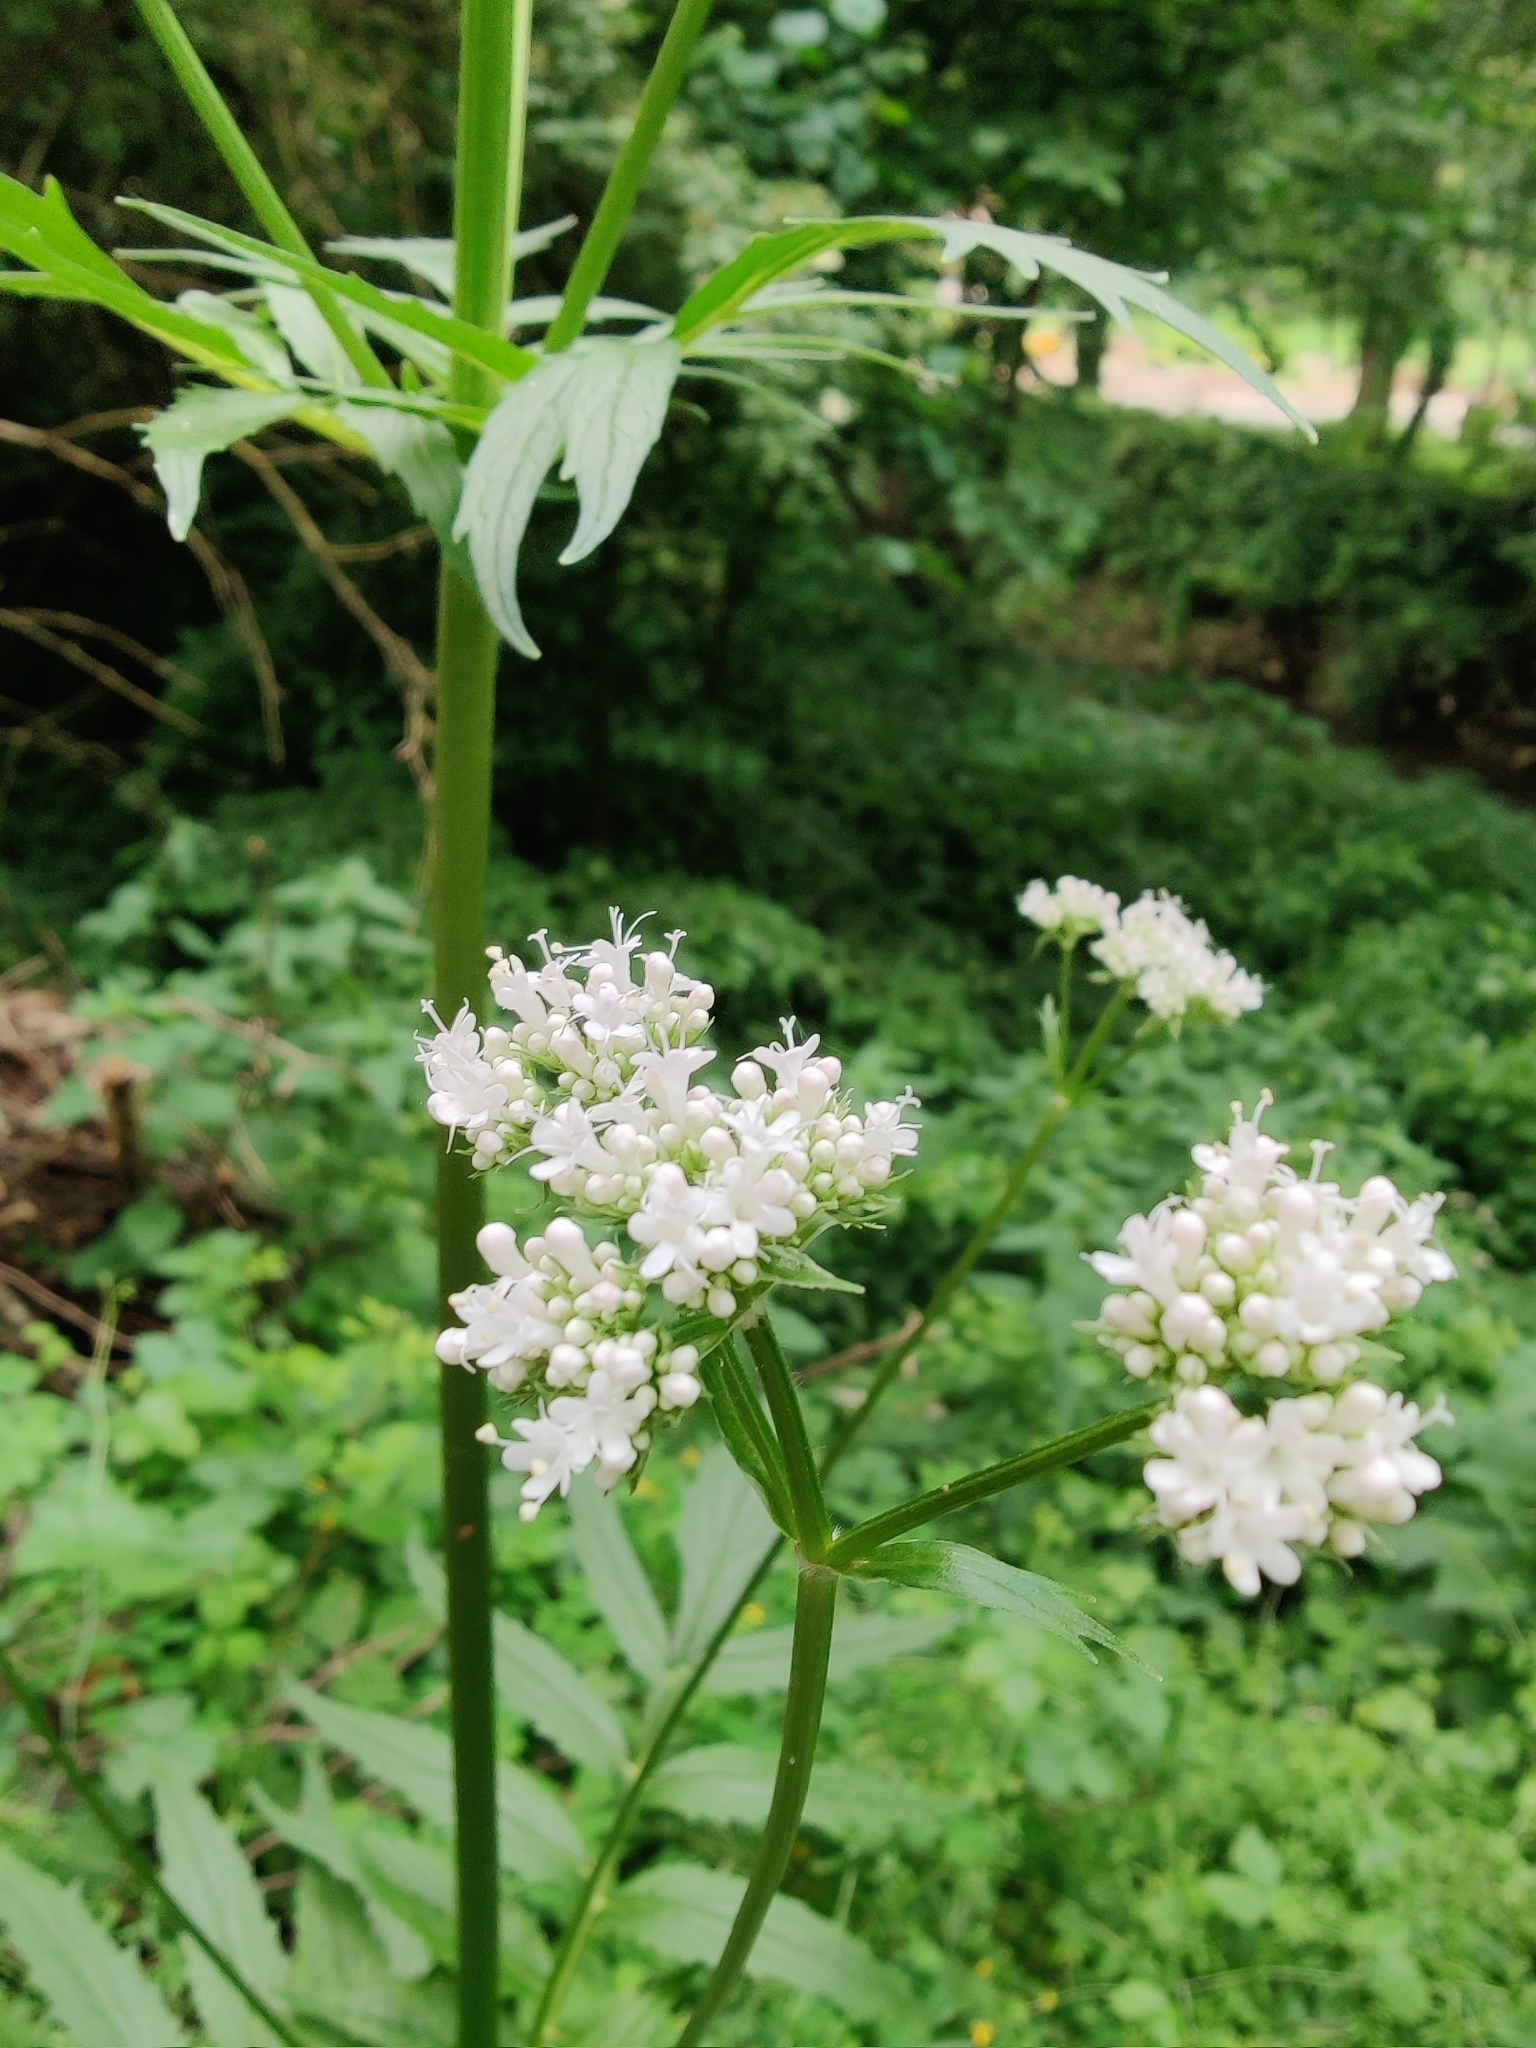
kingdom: Plantae
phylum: Tracheophyta
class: Magnoliopsida
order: Dipsacales
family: Caprifoliaceae
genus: Valeriana
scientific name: Valeriana officinalis
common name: Common valerian
